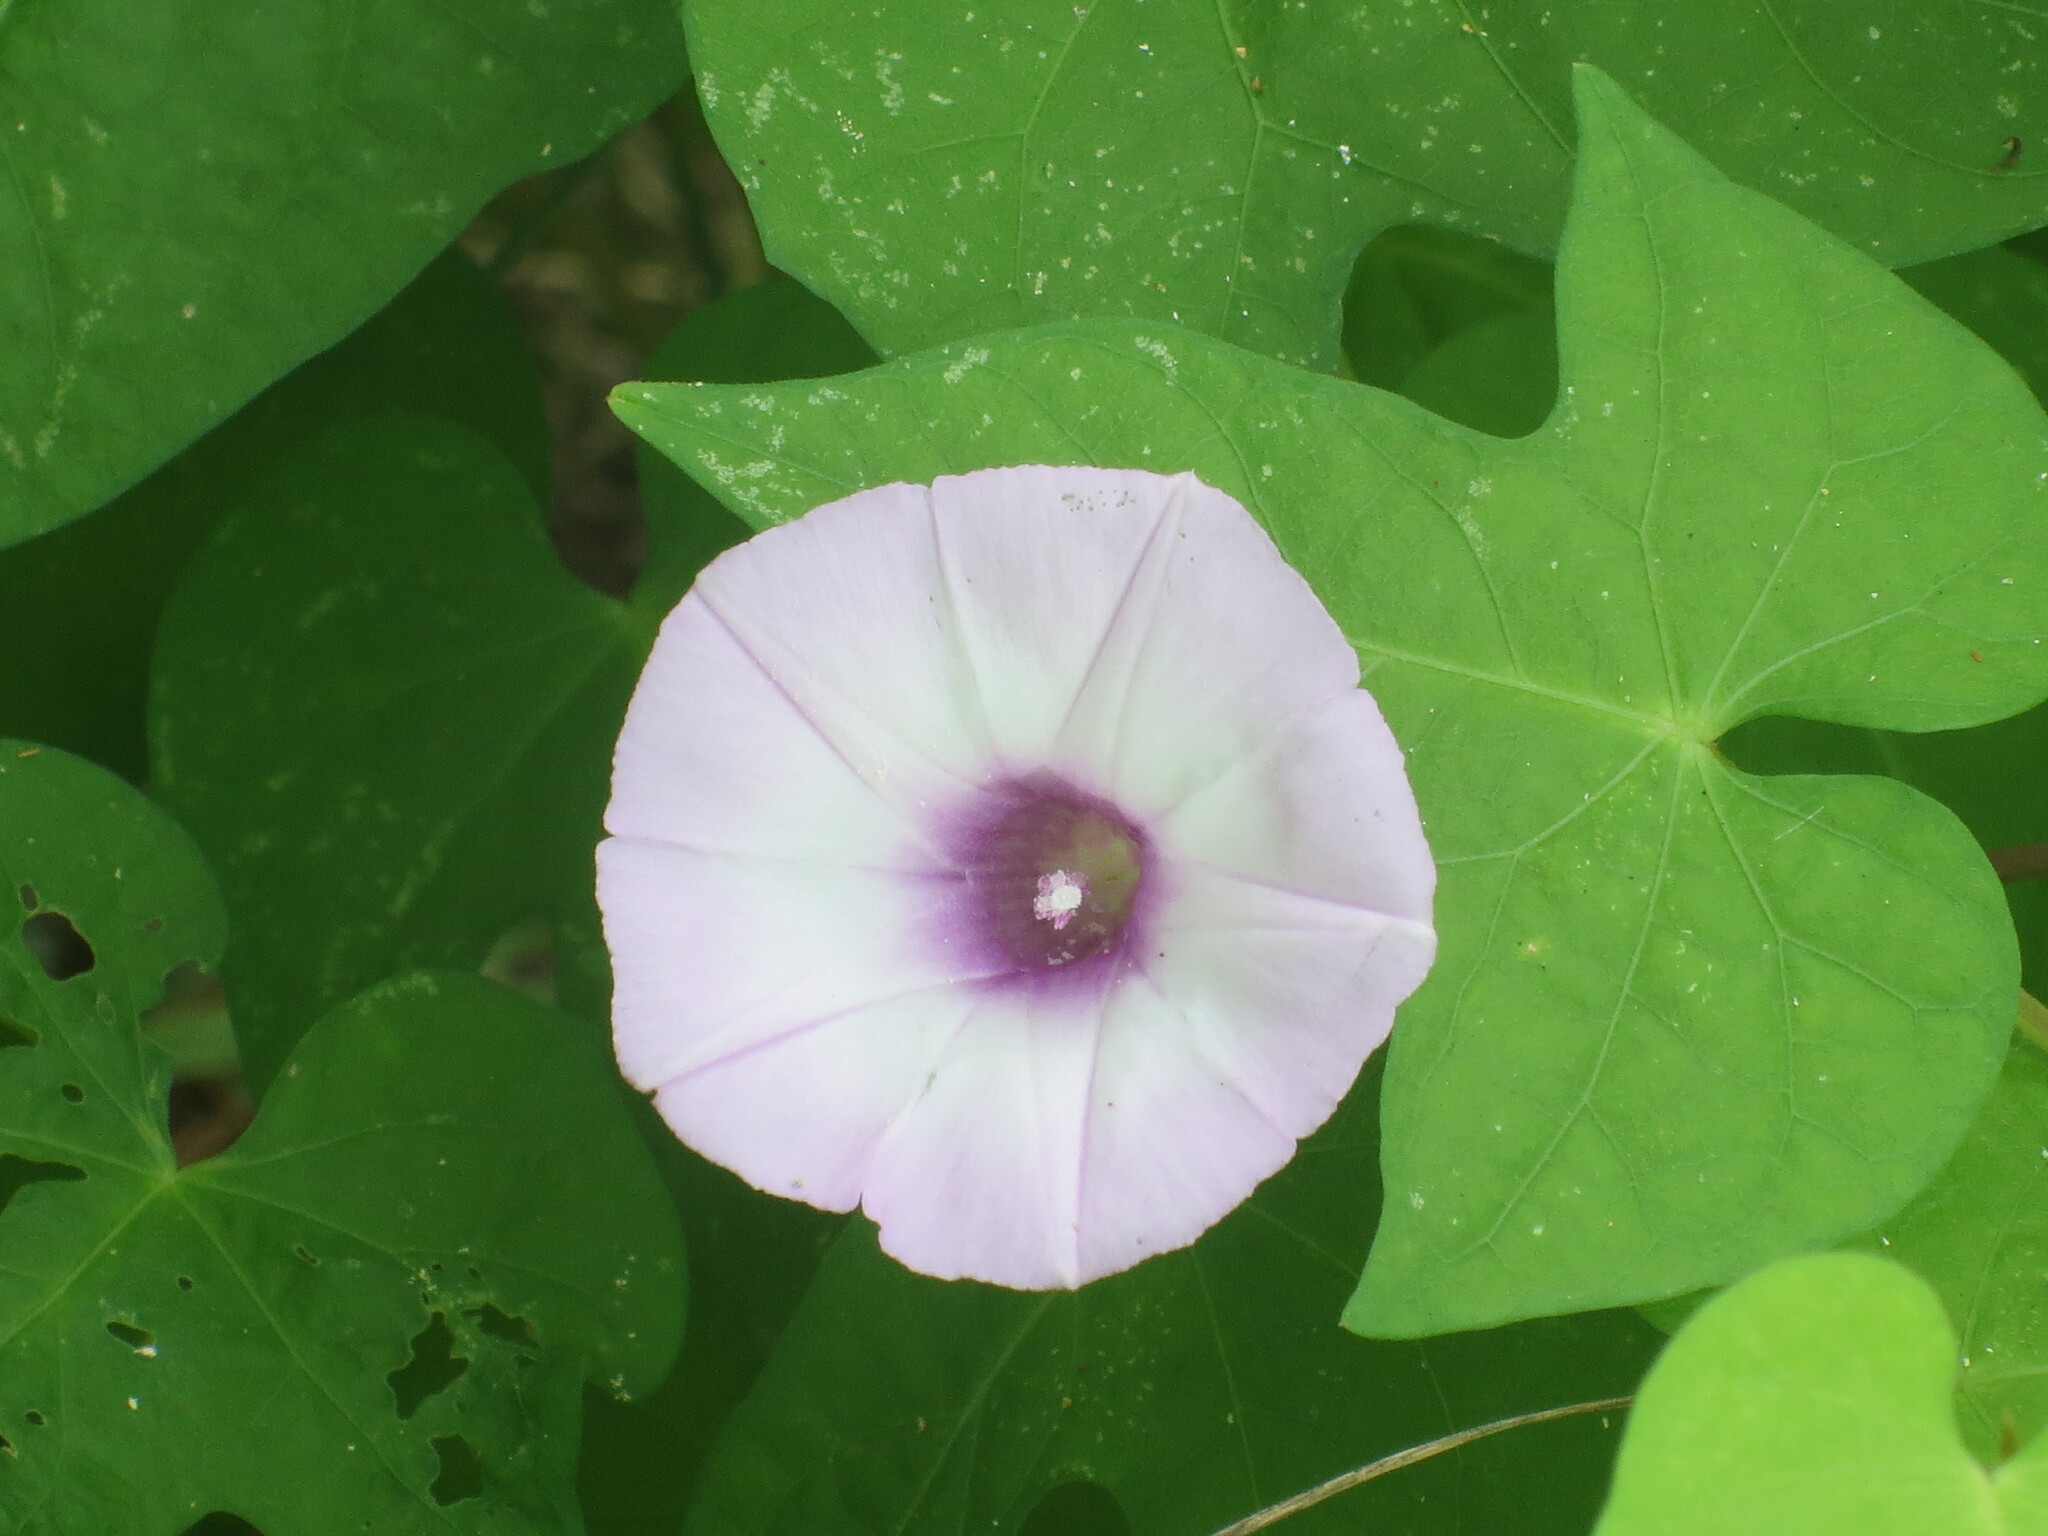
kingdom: Plantae
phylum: Tracheophyta
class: Magnoliopsida
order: Solanales
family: Convolvulaceae
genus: Ipomoea
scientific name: Ipomoea cordatotriloba
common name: Cotton morning glory
